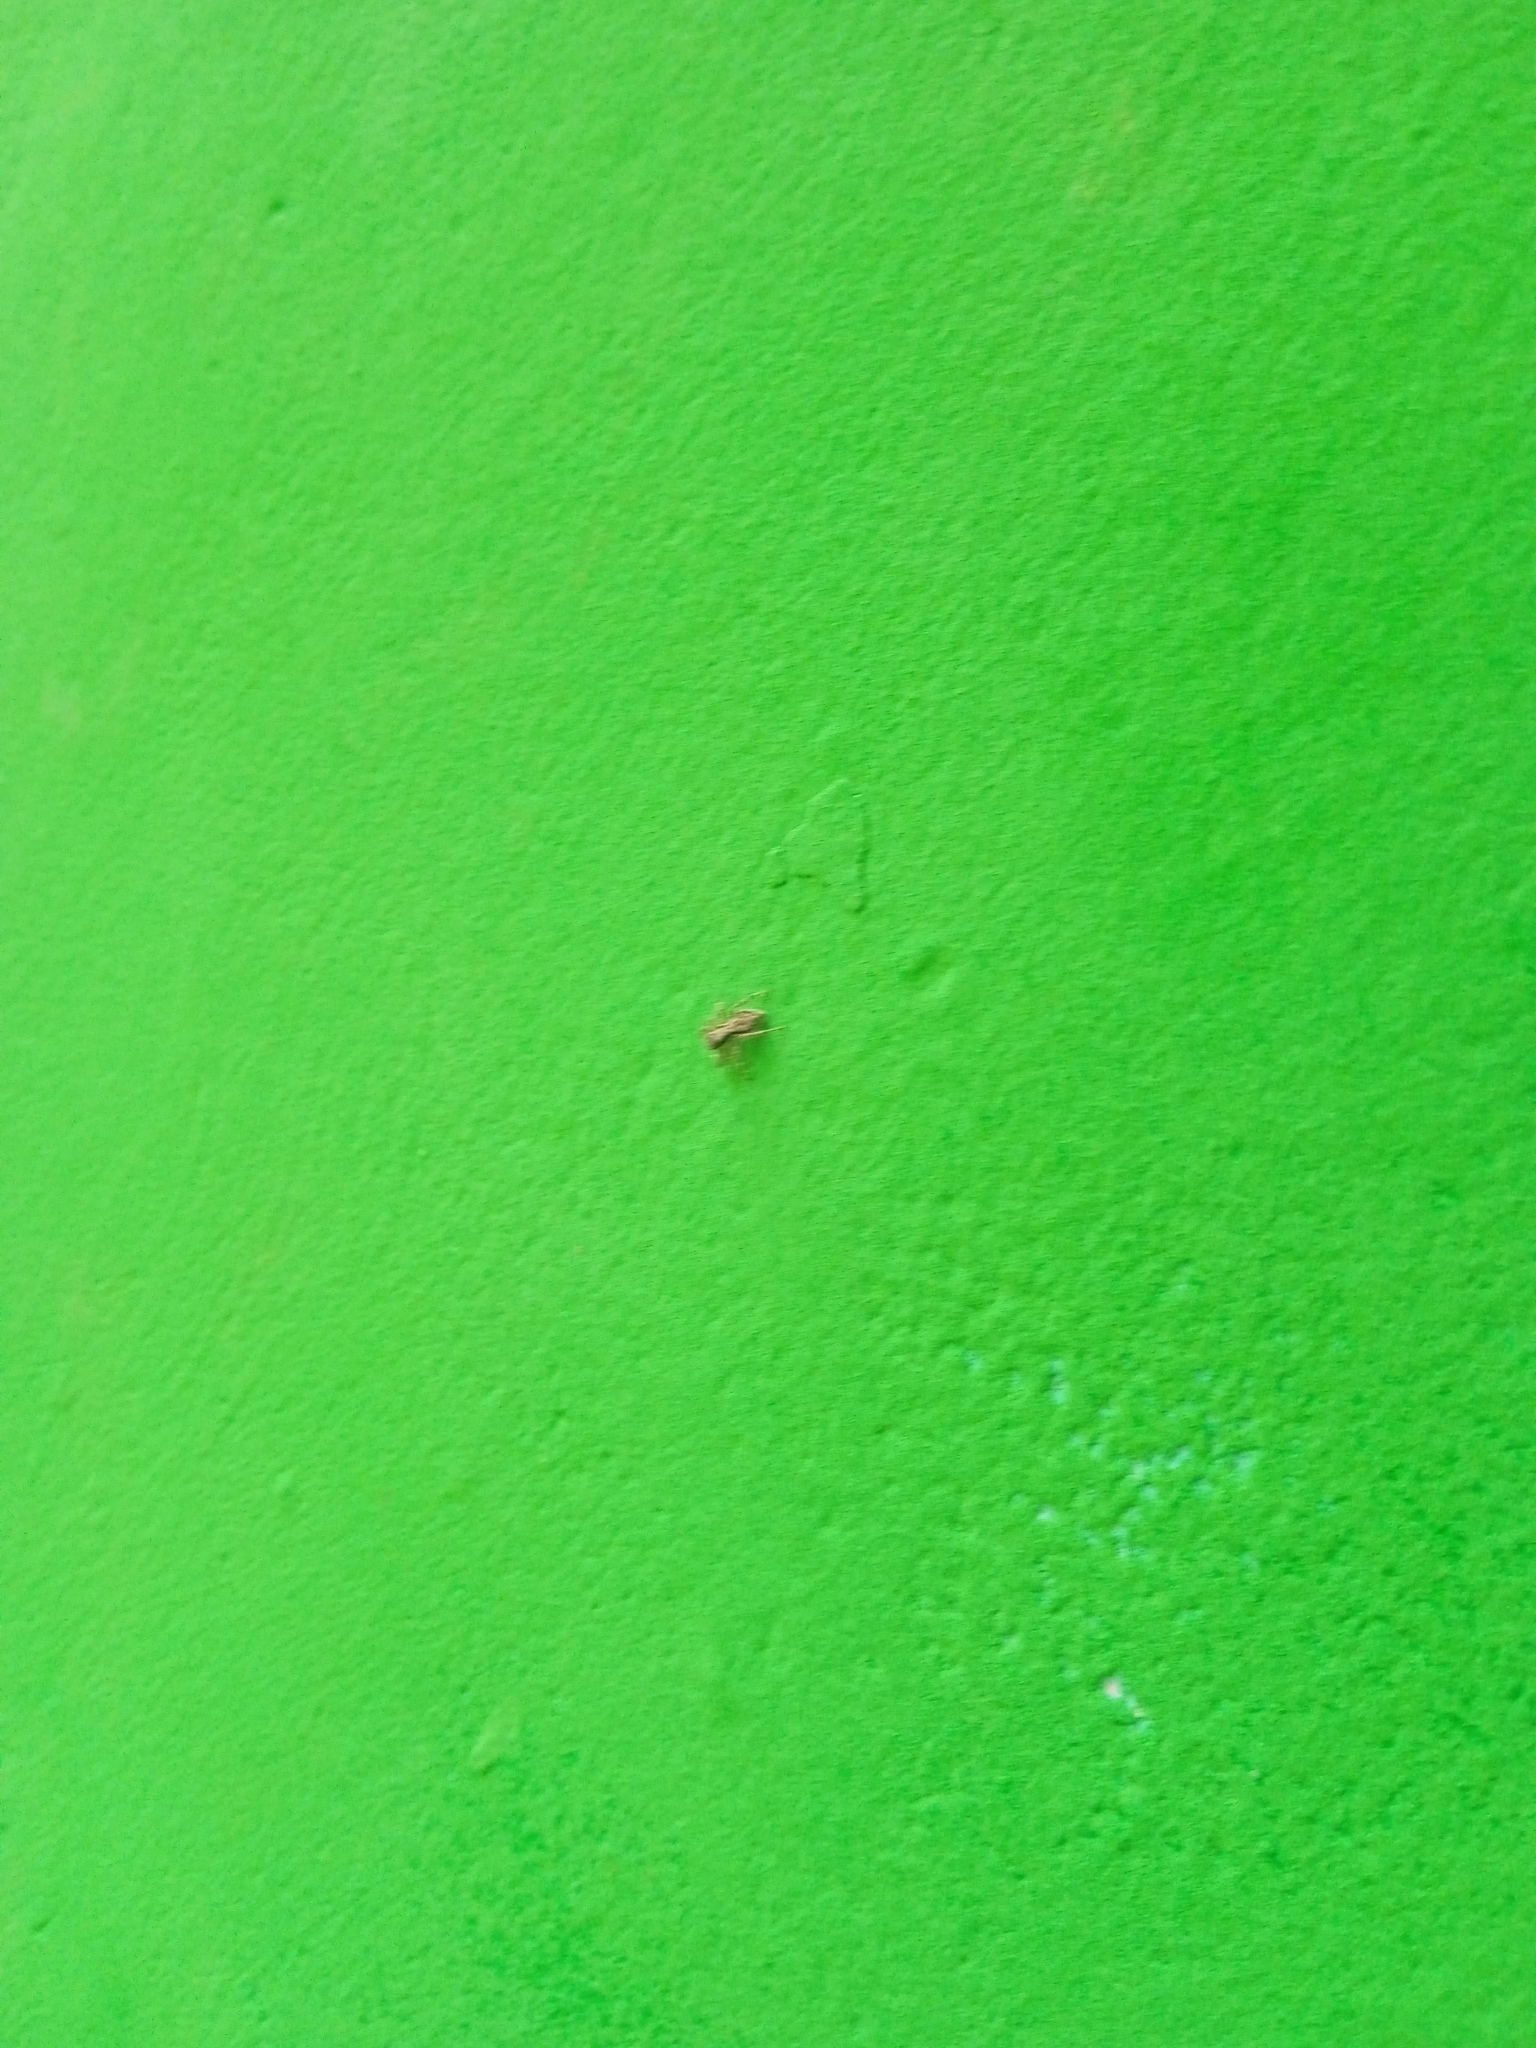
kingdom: Animalia
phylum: Arthropoda
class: Arachnida
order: Araneae
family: Salticidae
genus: Menemerus
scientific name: Menemerus bivittatus
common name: Gray wall jumper
